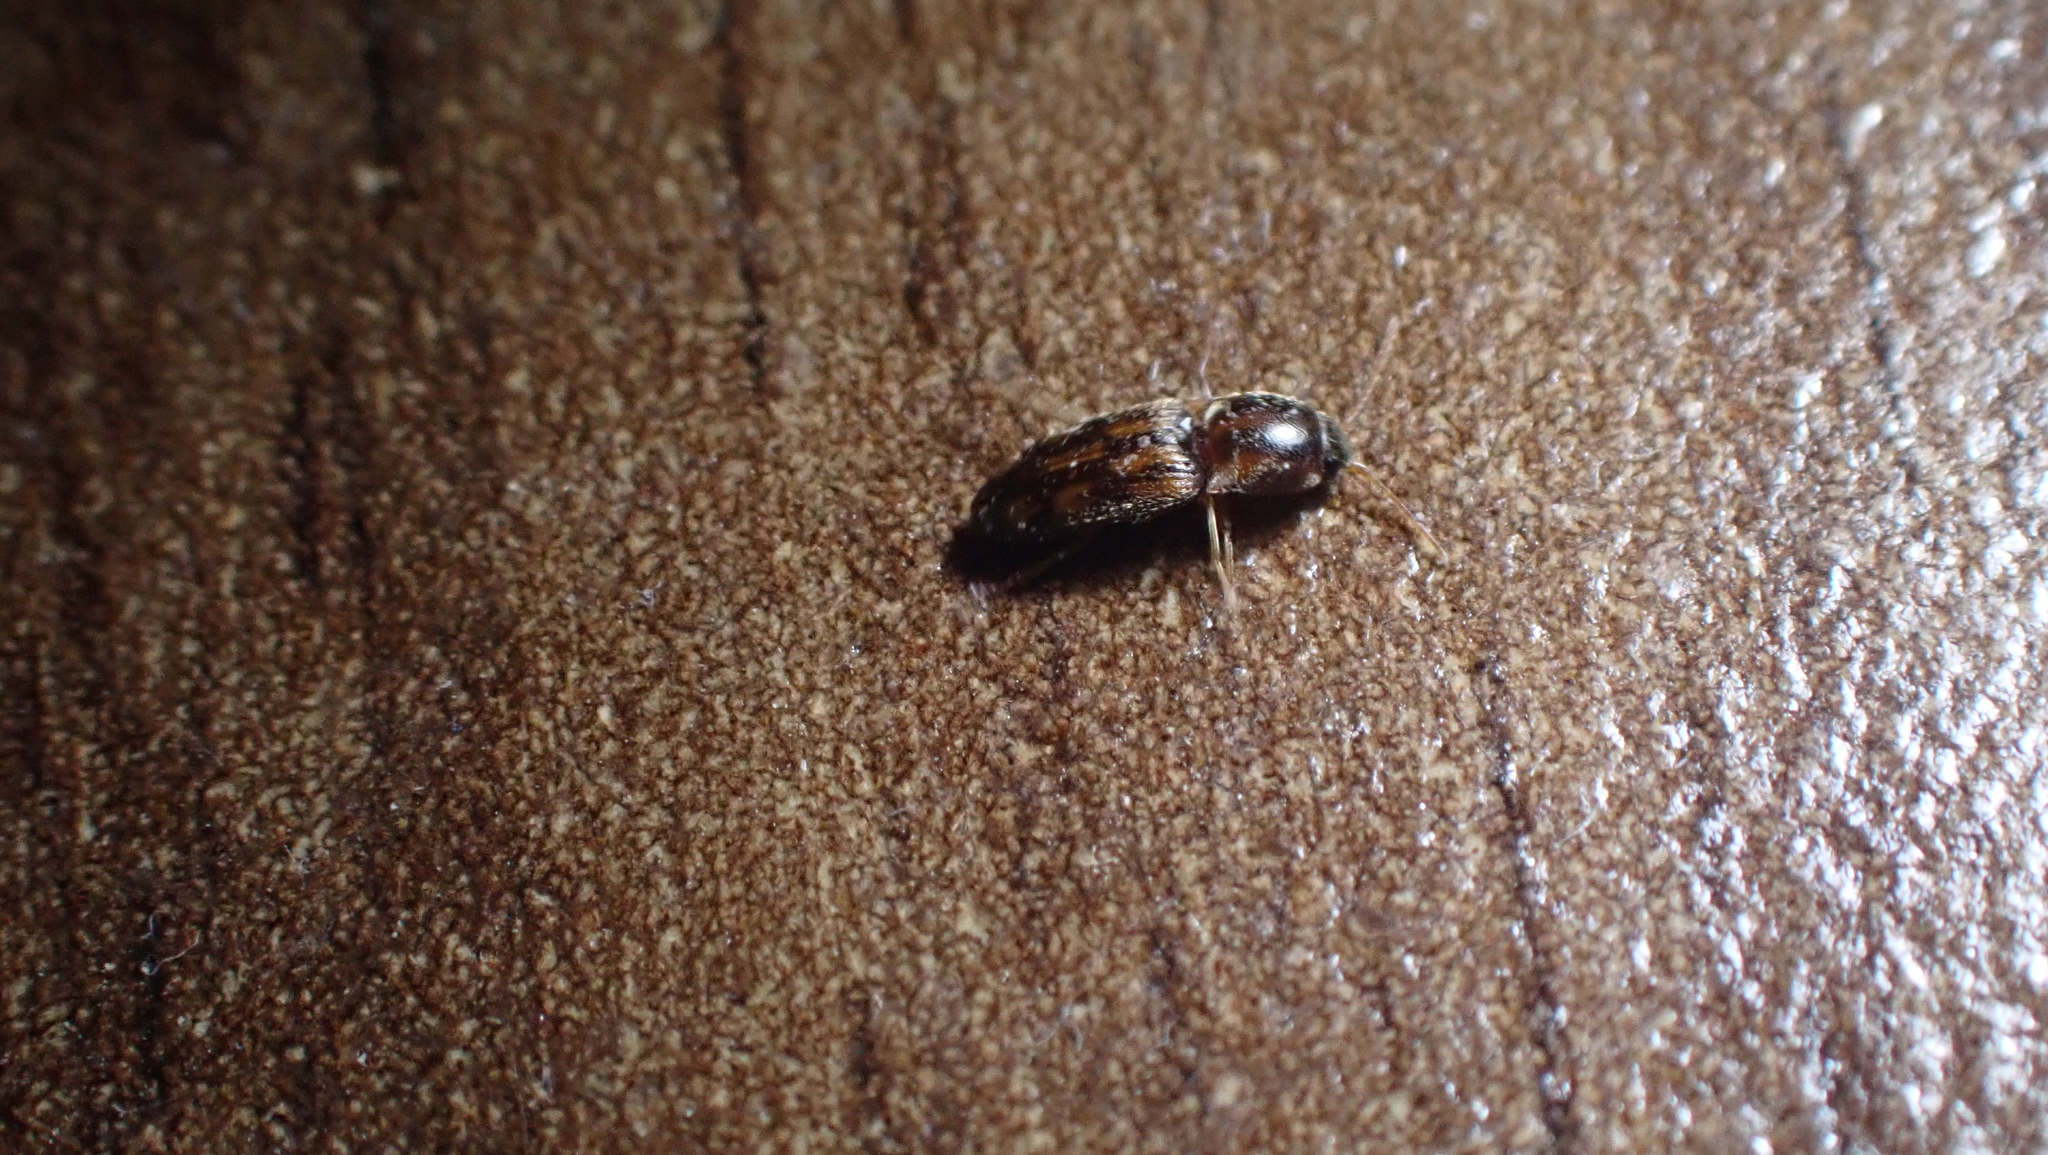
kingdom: Animalia
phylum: Arthropoda
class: Insecta
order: Coleoptera
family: Elateridae
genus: Monocrepidius
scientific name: Monocrepidius bellus
